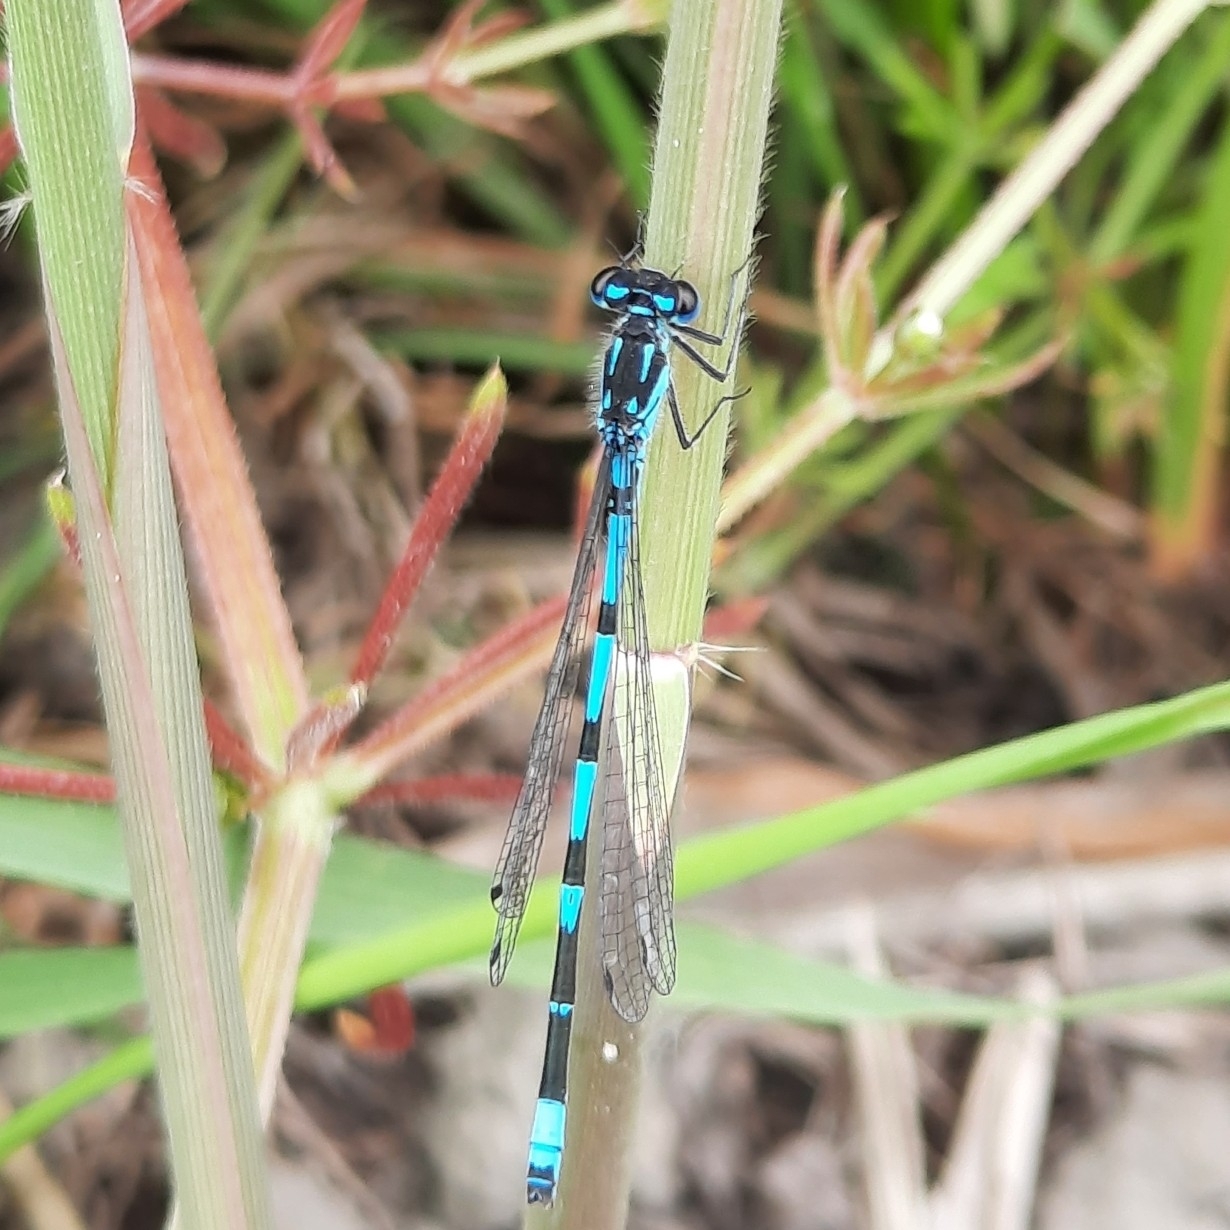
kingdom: Animalia
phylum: Arthropoda
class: Insecta
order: Odonata
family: Coenagrionidae
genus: Coenagrion
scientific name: Coenagrion pulchellum
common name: Variable bluet
